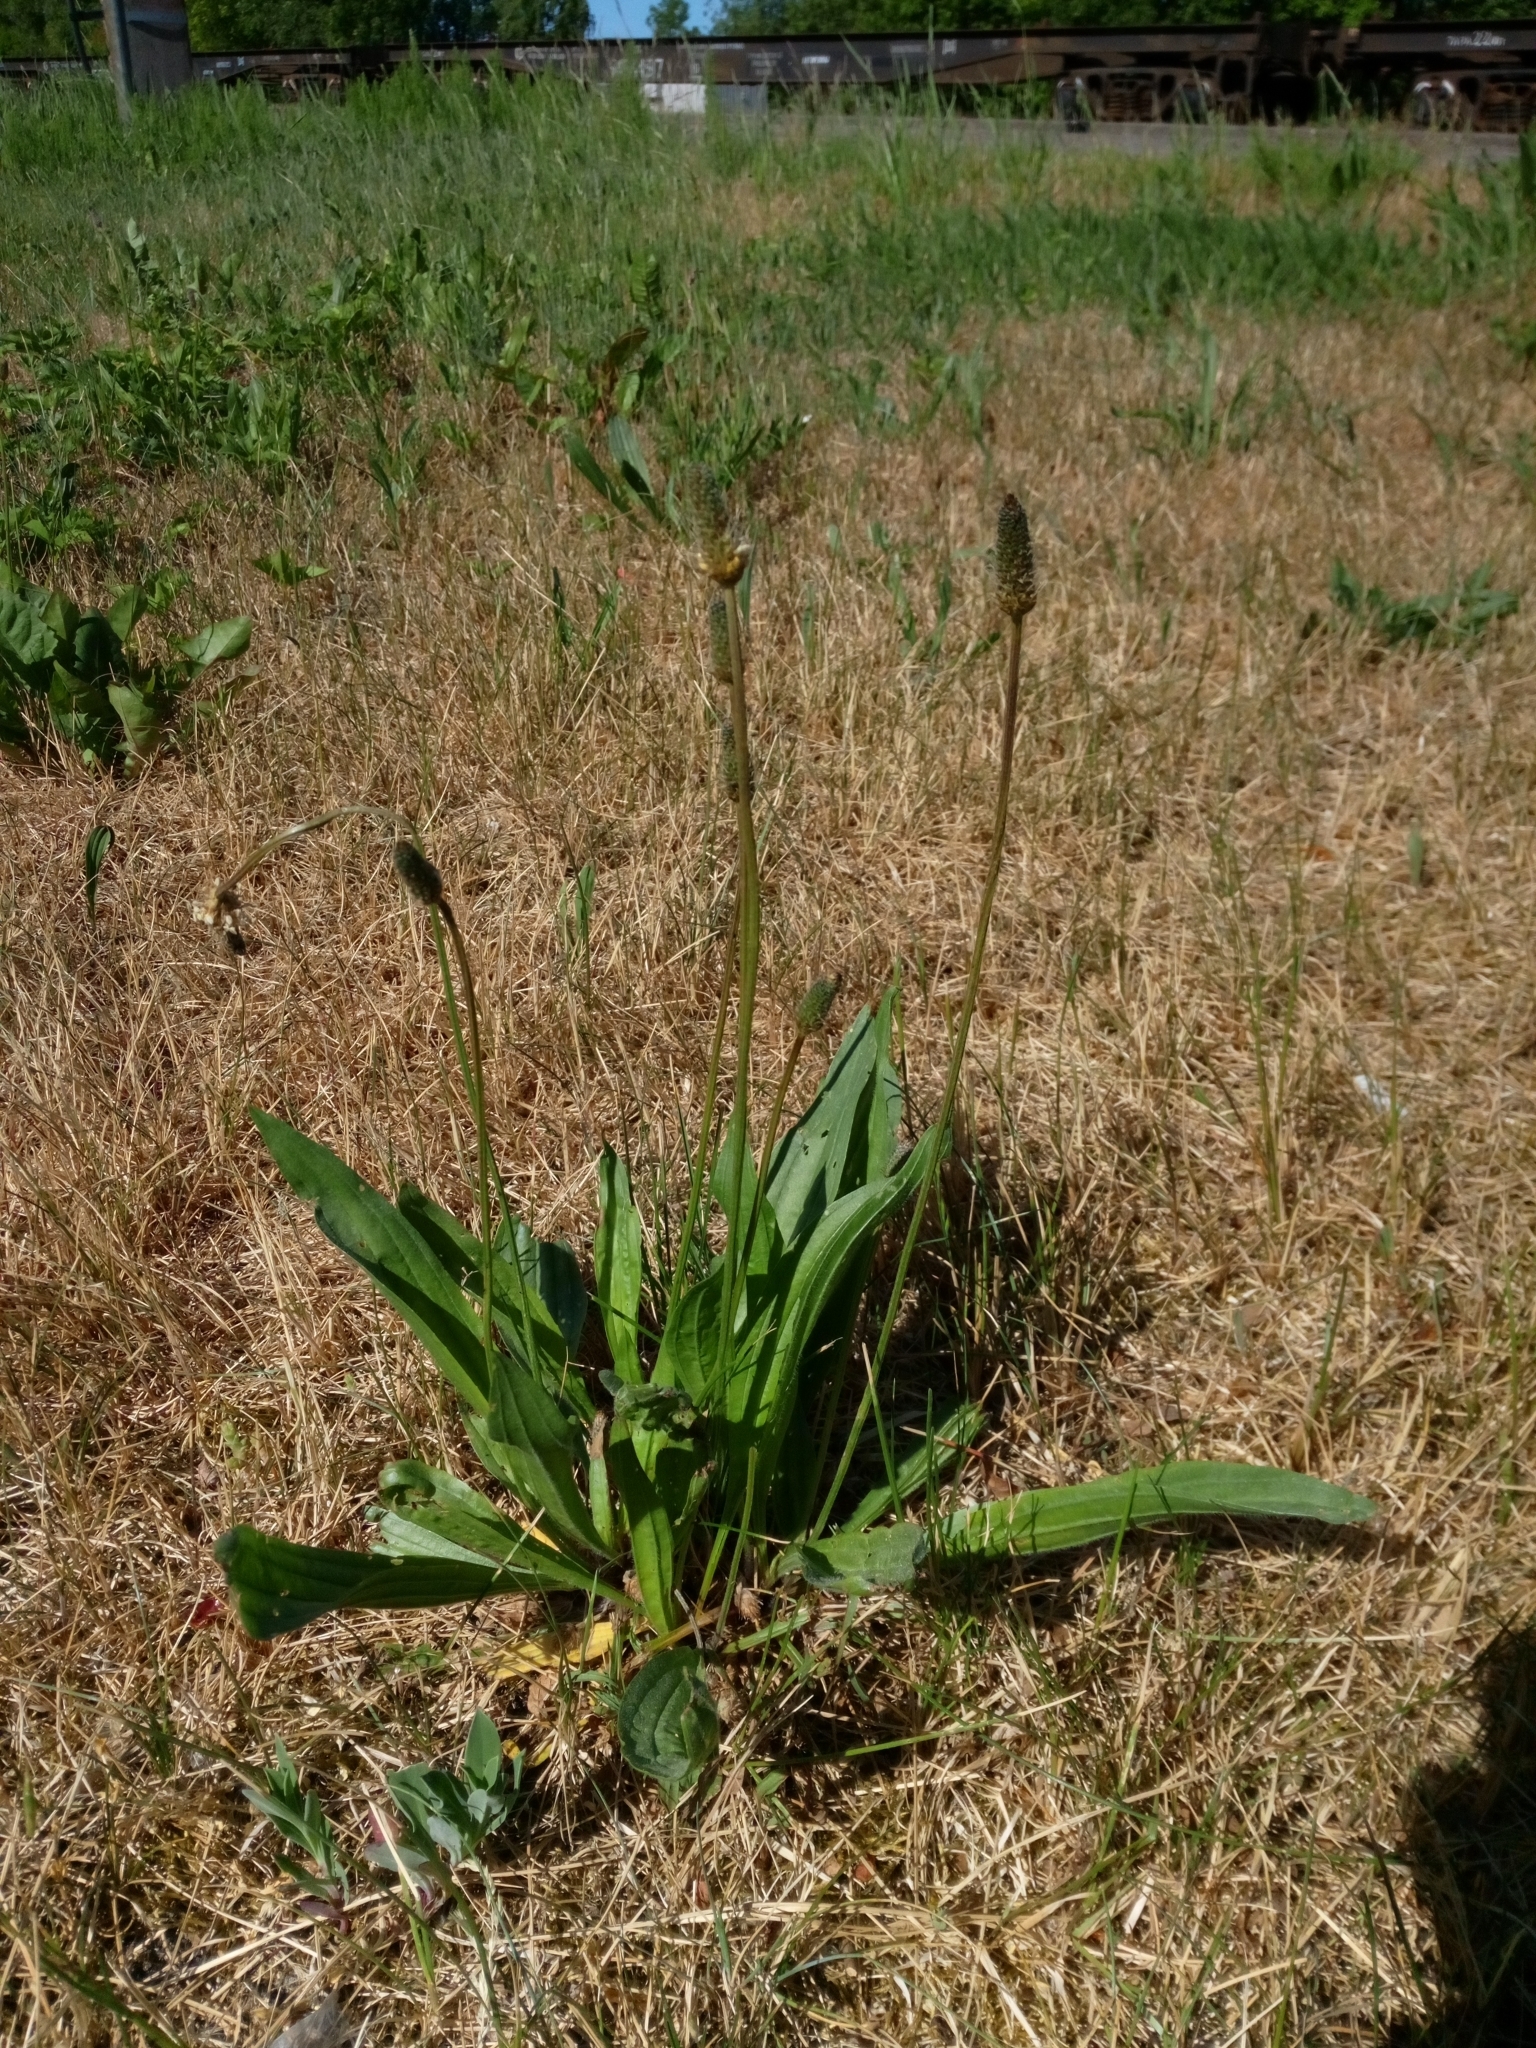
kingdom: Plantae
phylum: Tracheophyta
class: Magnoliopsida
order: Lamiales
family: Plantaginaceae
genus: Plantago
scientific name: Plantago lanceolata
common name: Ribwort plantain
